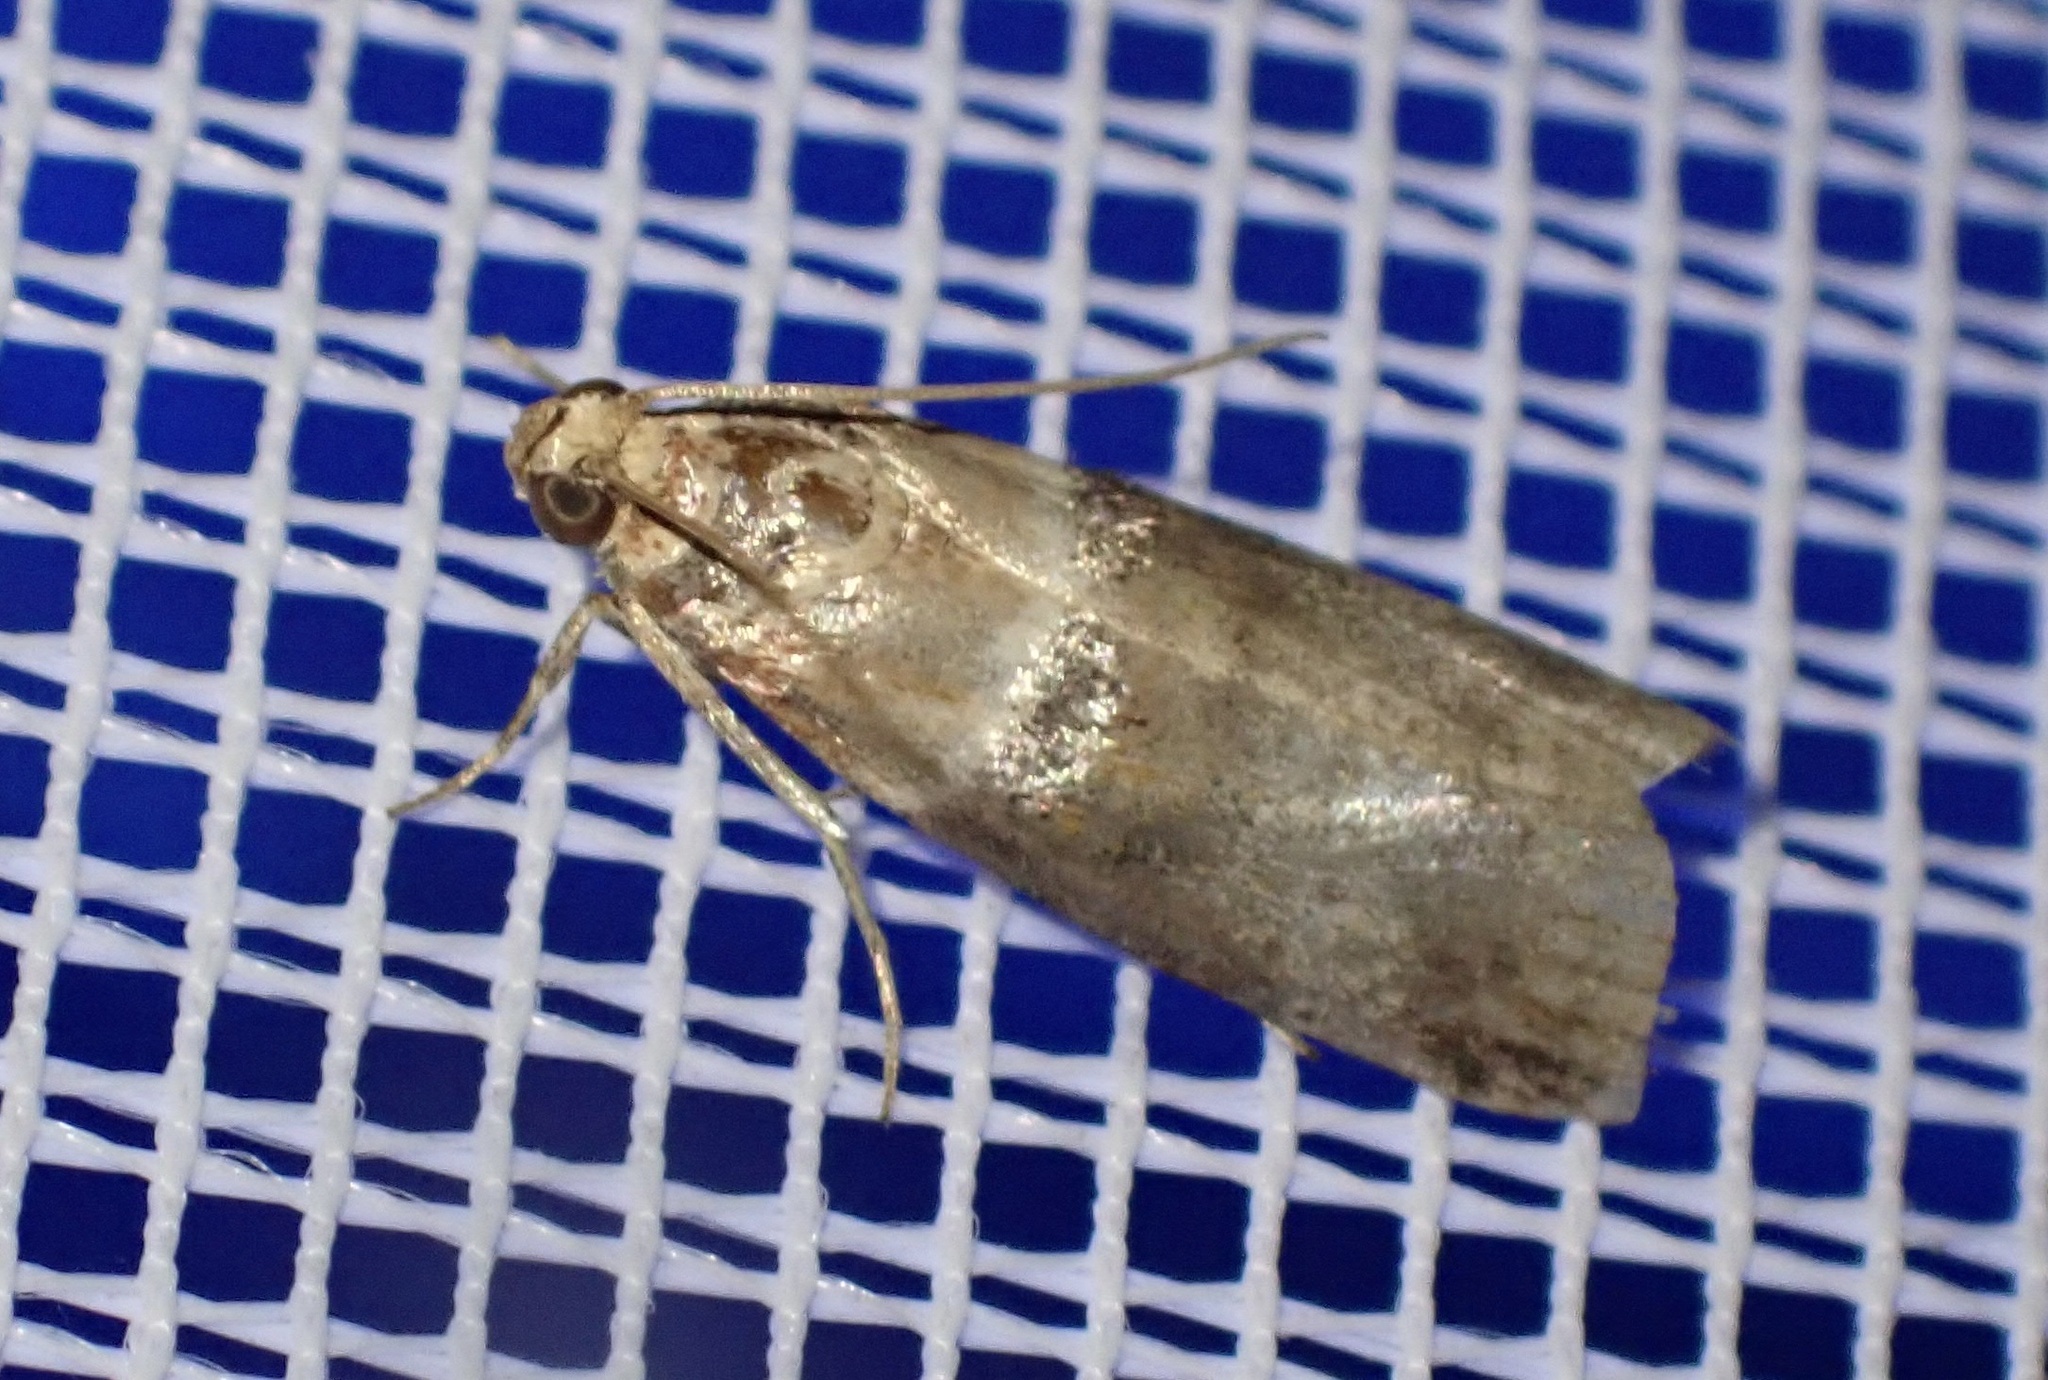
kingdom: Animalia
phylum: Arthropoda
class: Insecta
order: Lepidoptera
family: Pyralidae
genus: Acrobasis
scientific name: Acrobasis tumidana
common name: Scarce oak knot-horn
